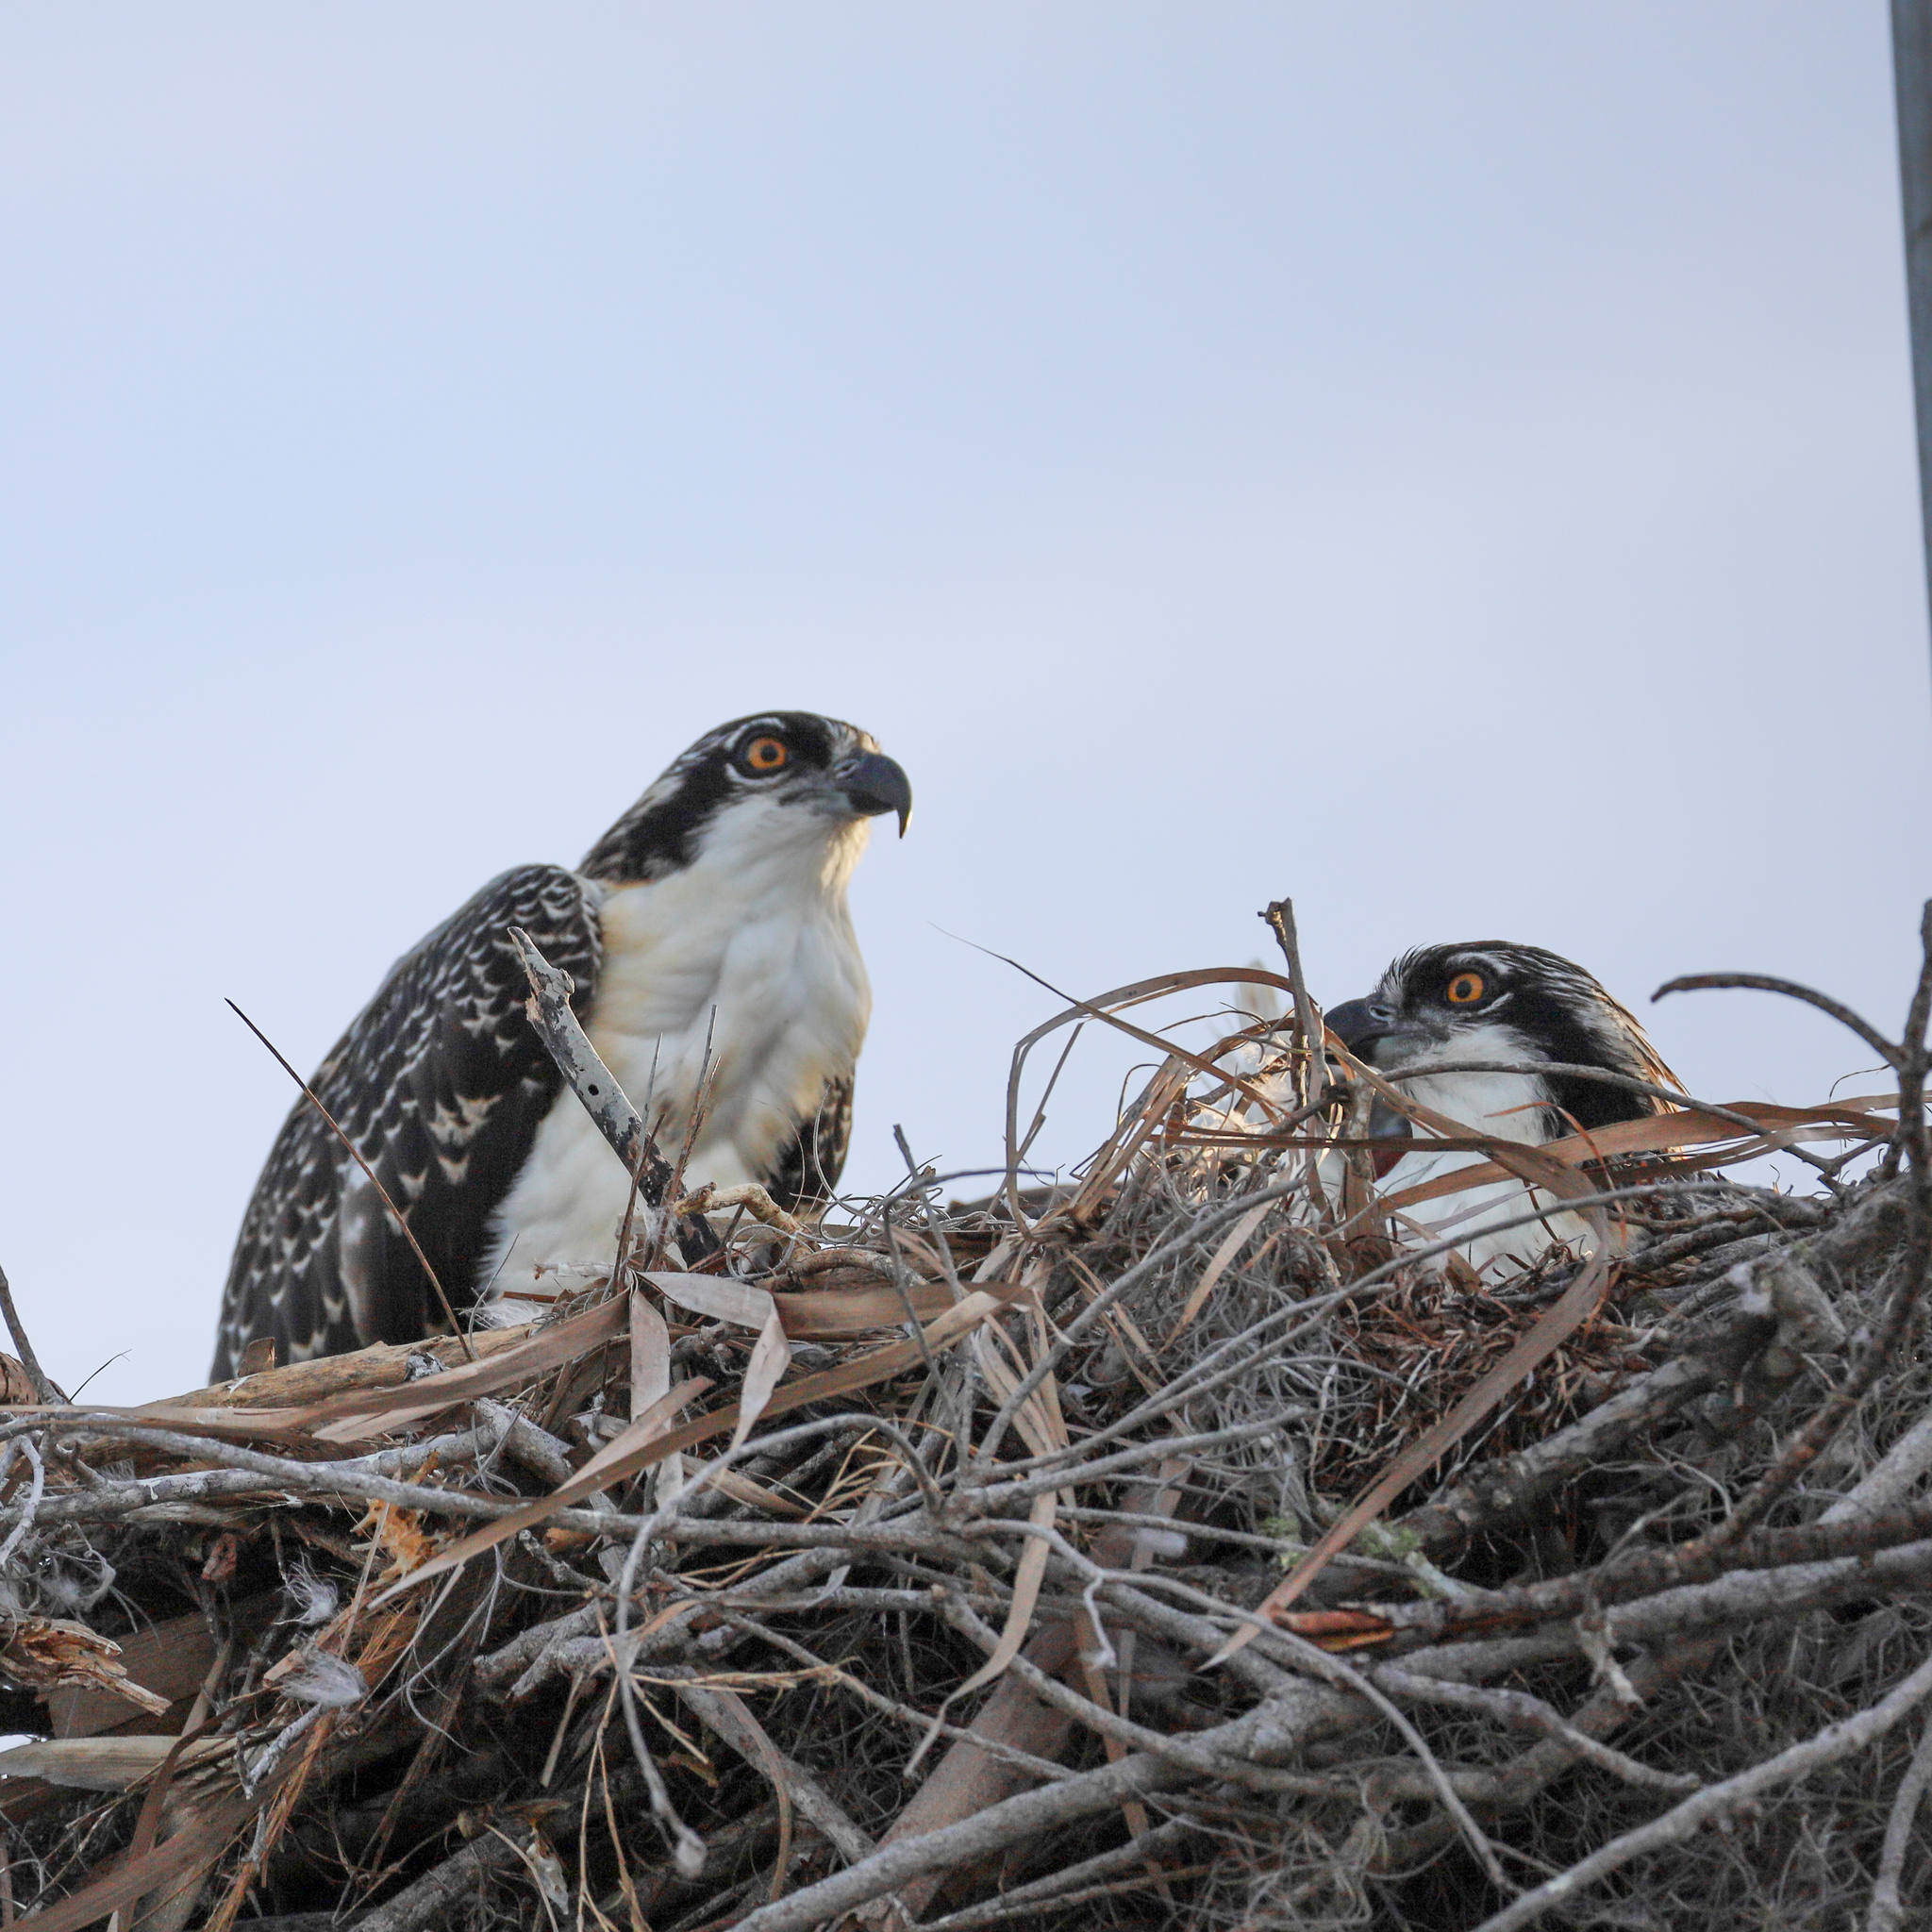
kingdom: Animalia
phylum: Chordata
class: Aves
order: Accipitriformes
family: Pandionidae
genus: Pandion
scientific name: Pandion haliaetus
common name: Osprey
